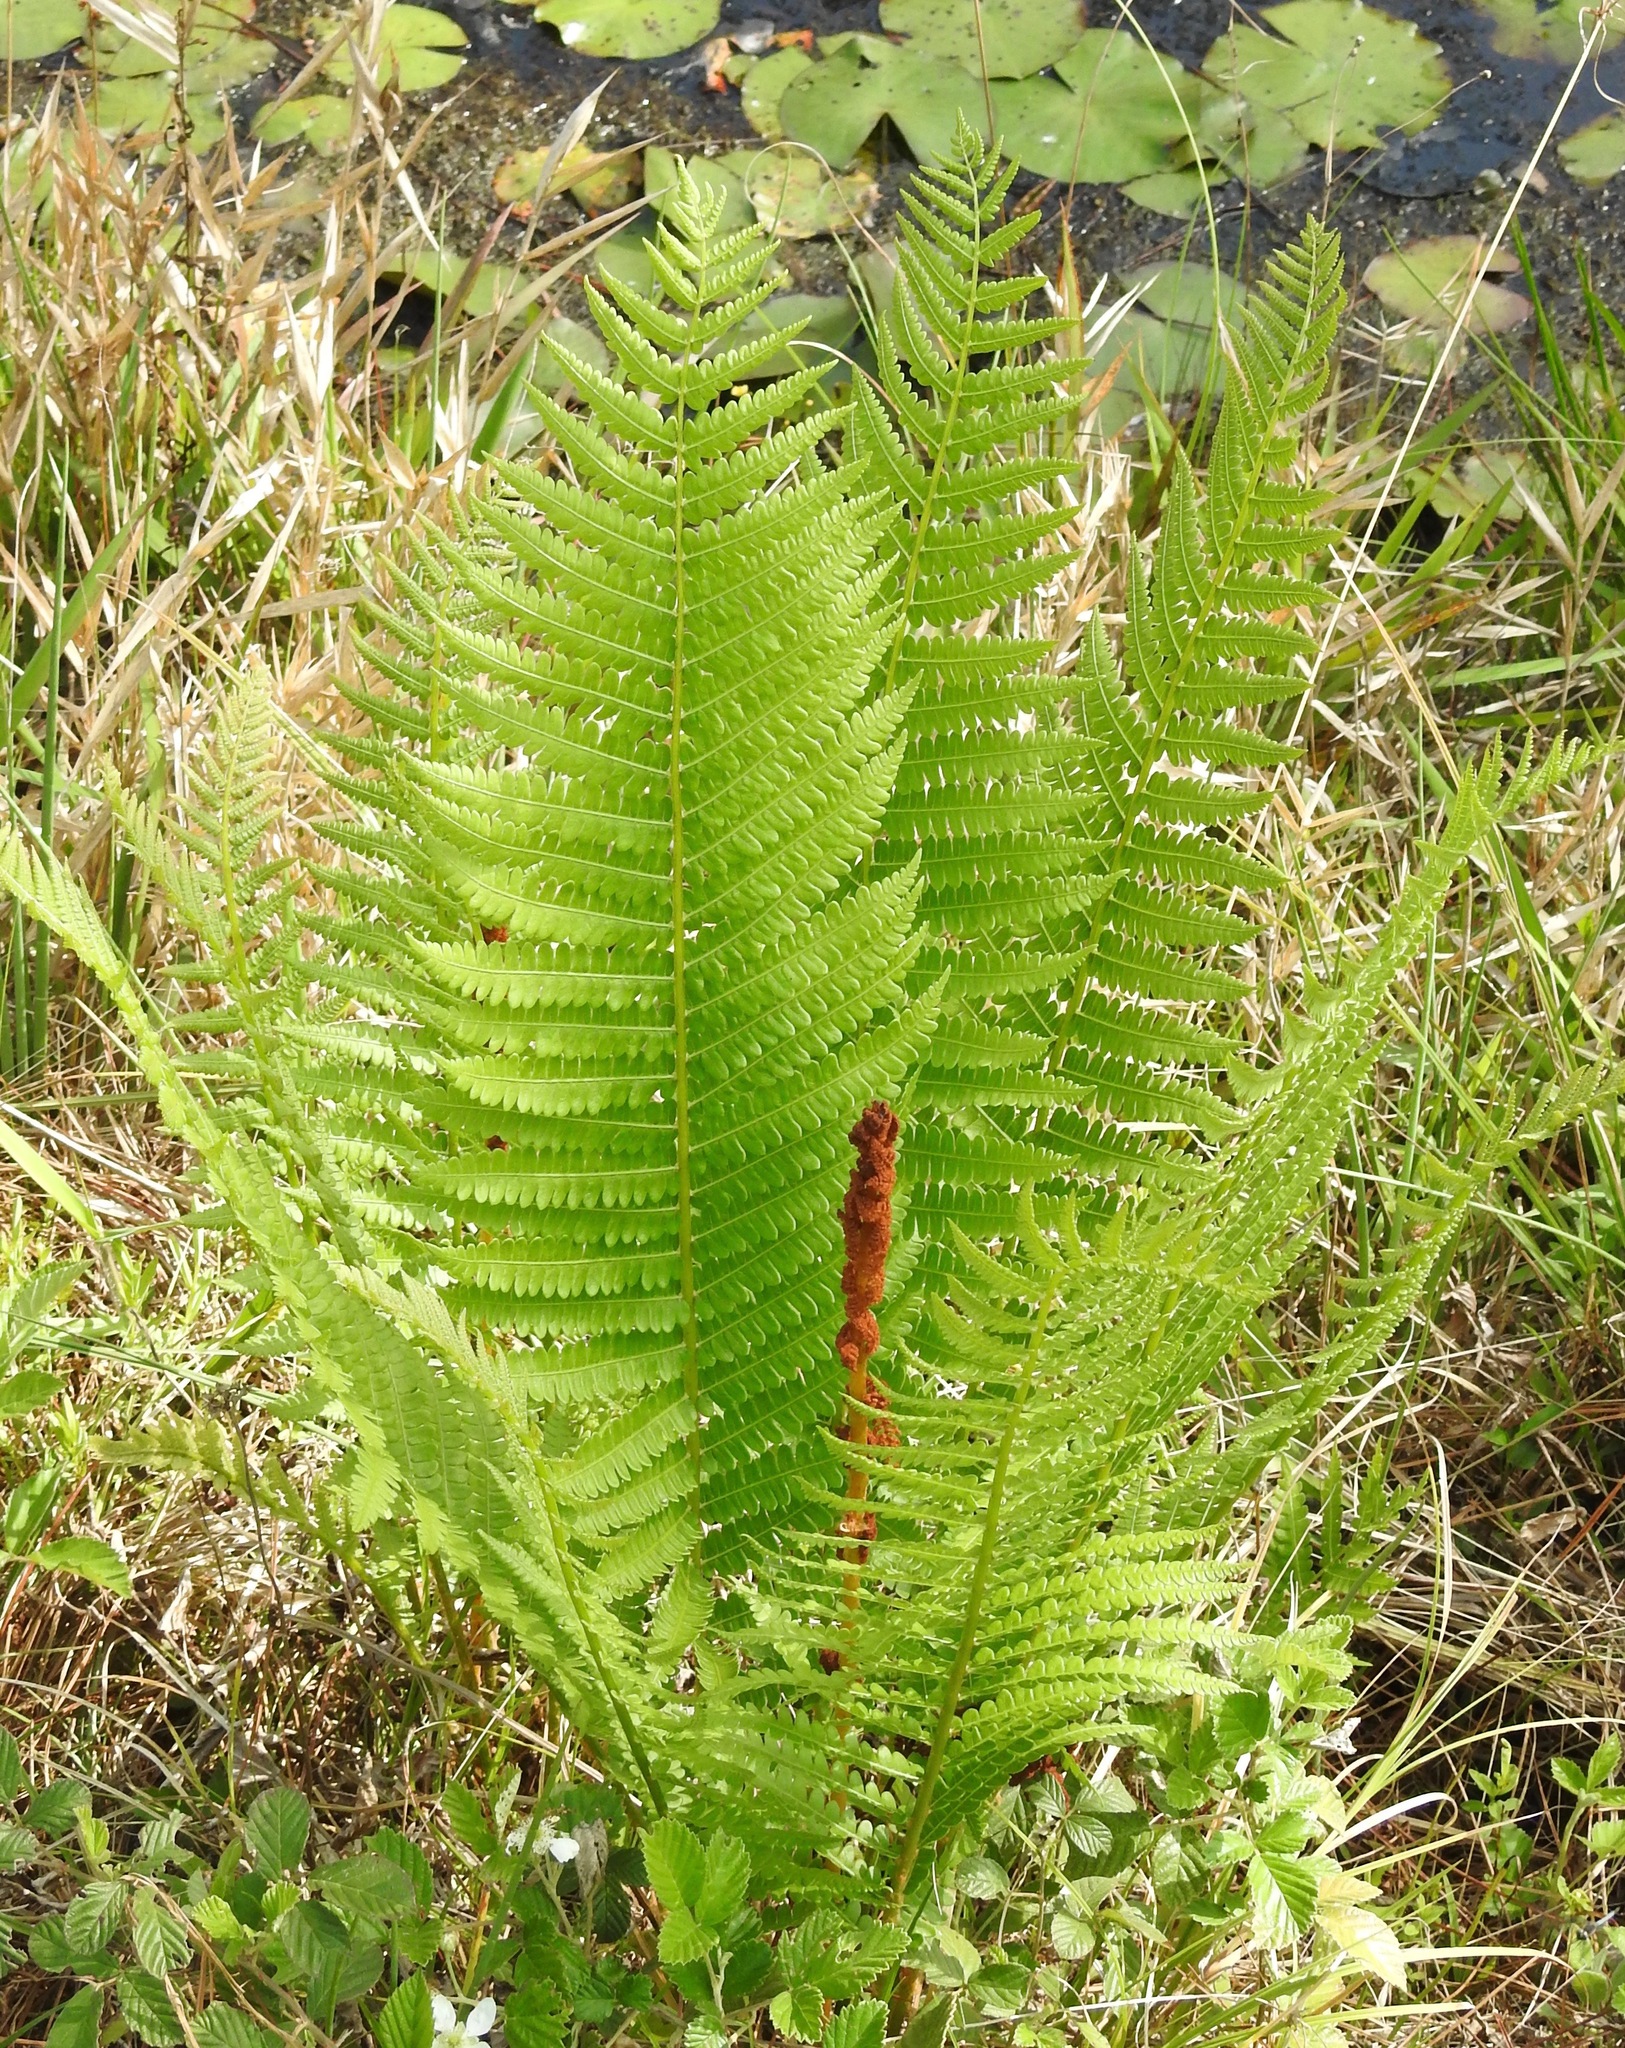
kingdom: Plantae
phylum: Tracheophyta
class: Polypodiopsida
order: Osmundales
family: Osmundaceae
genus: Osmundastrum
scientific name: Osmundastrum cinnamomeum
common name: Cinnamon fern
